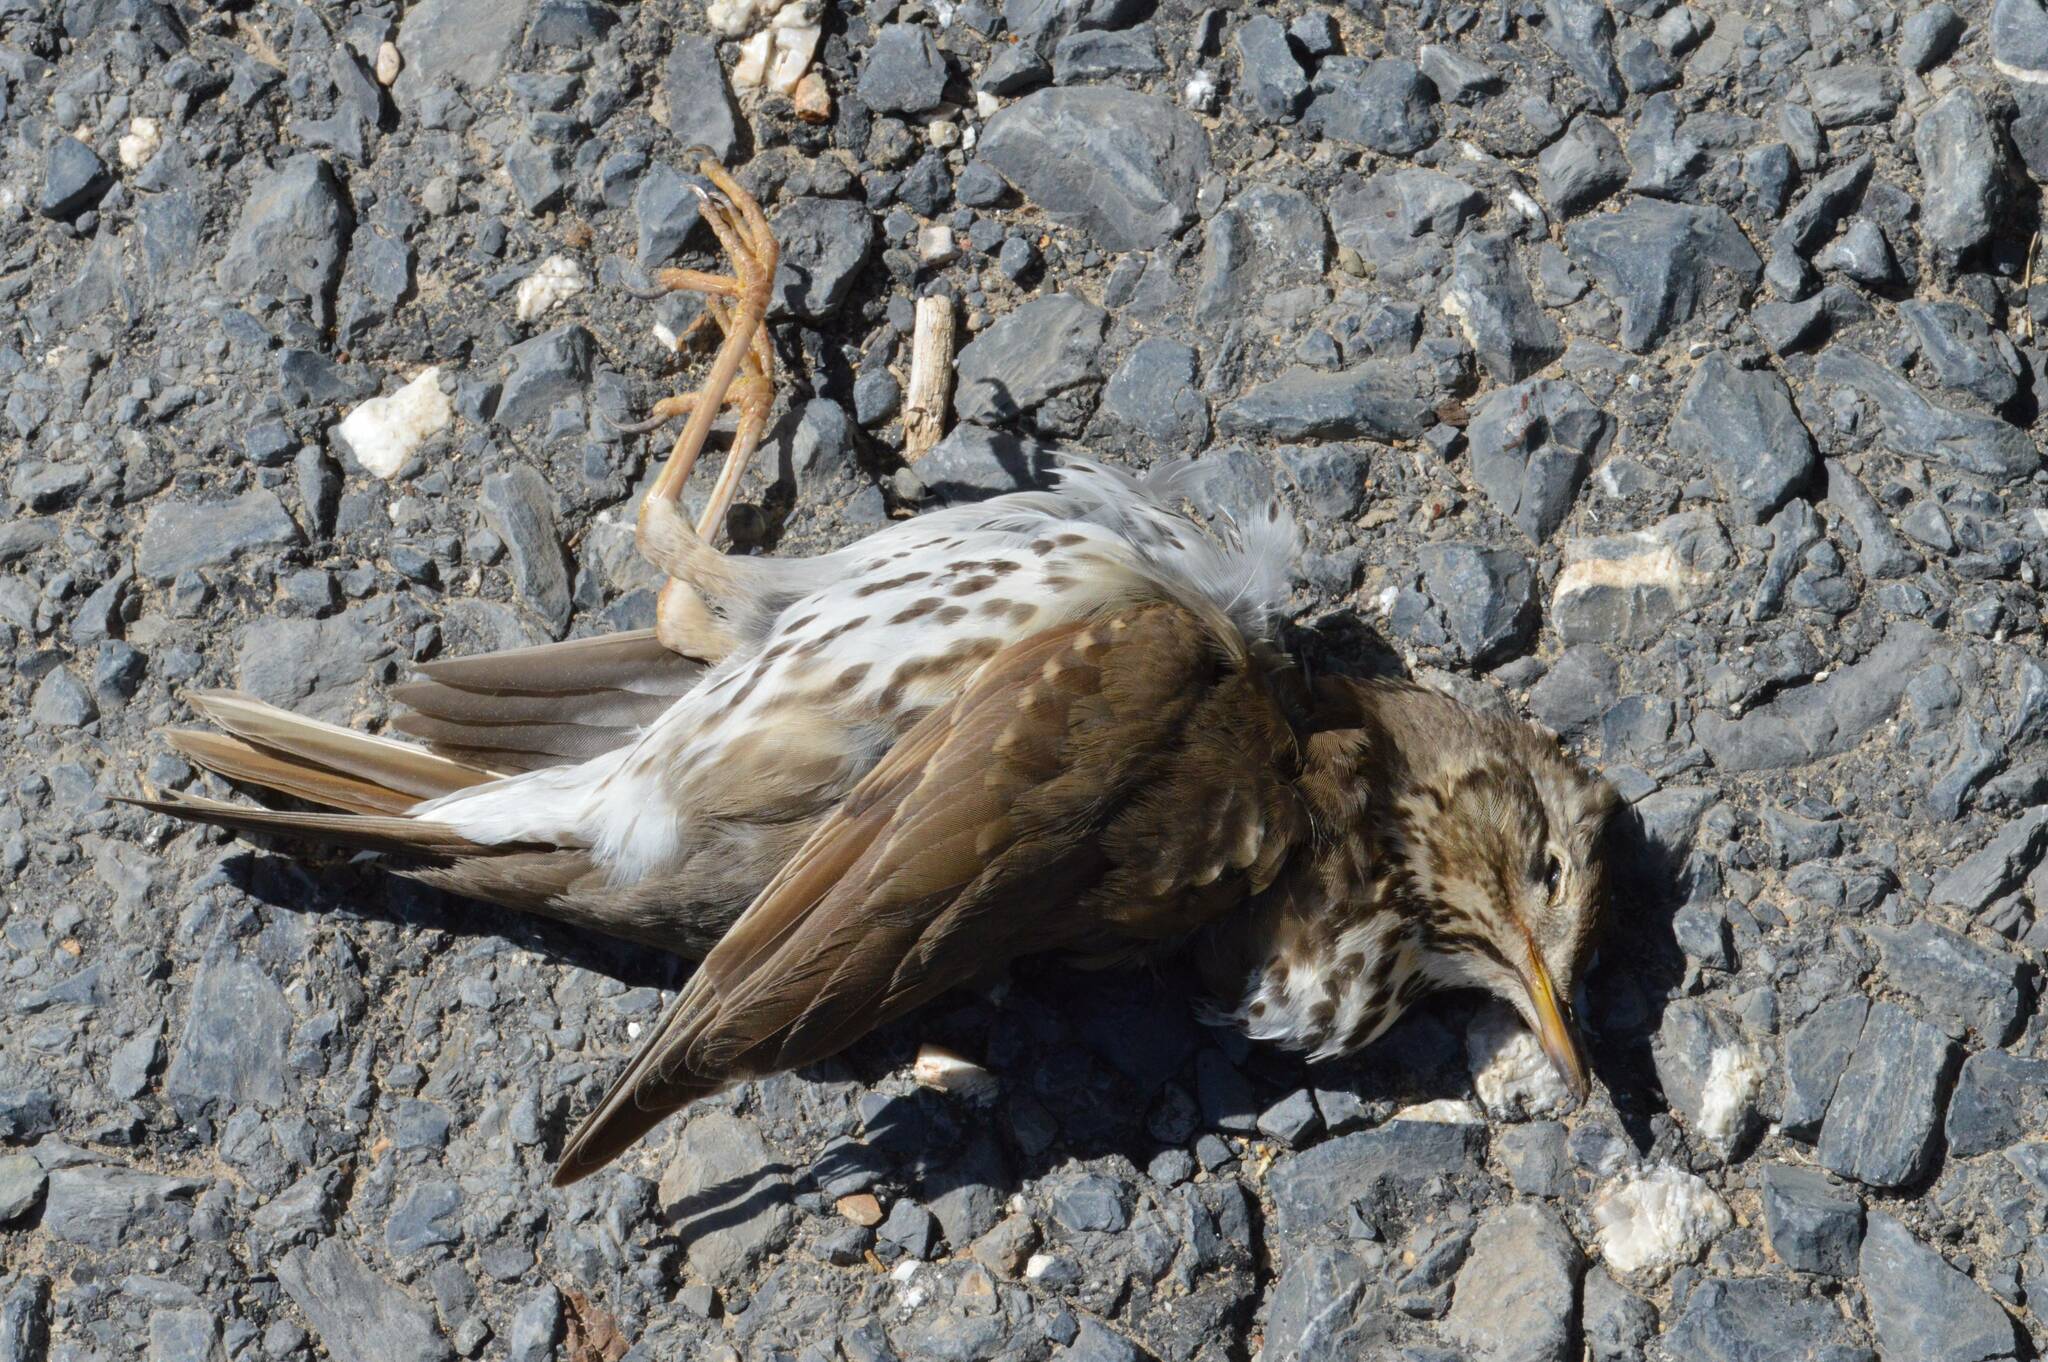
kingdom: Animalia
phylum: Chordata
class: Aves
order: Passeriformes
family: Turdidae
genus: Turdus
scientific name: Turdus philomelos
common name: Song thrush
